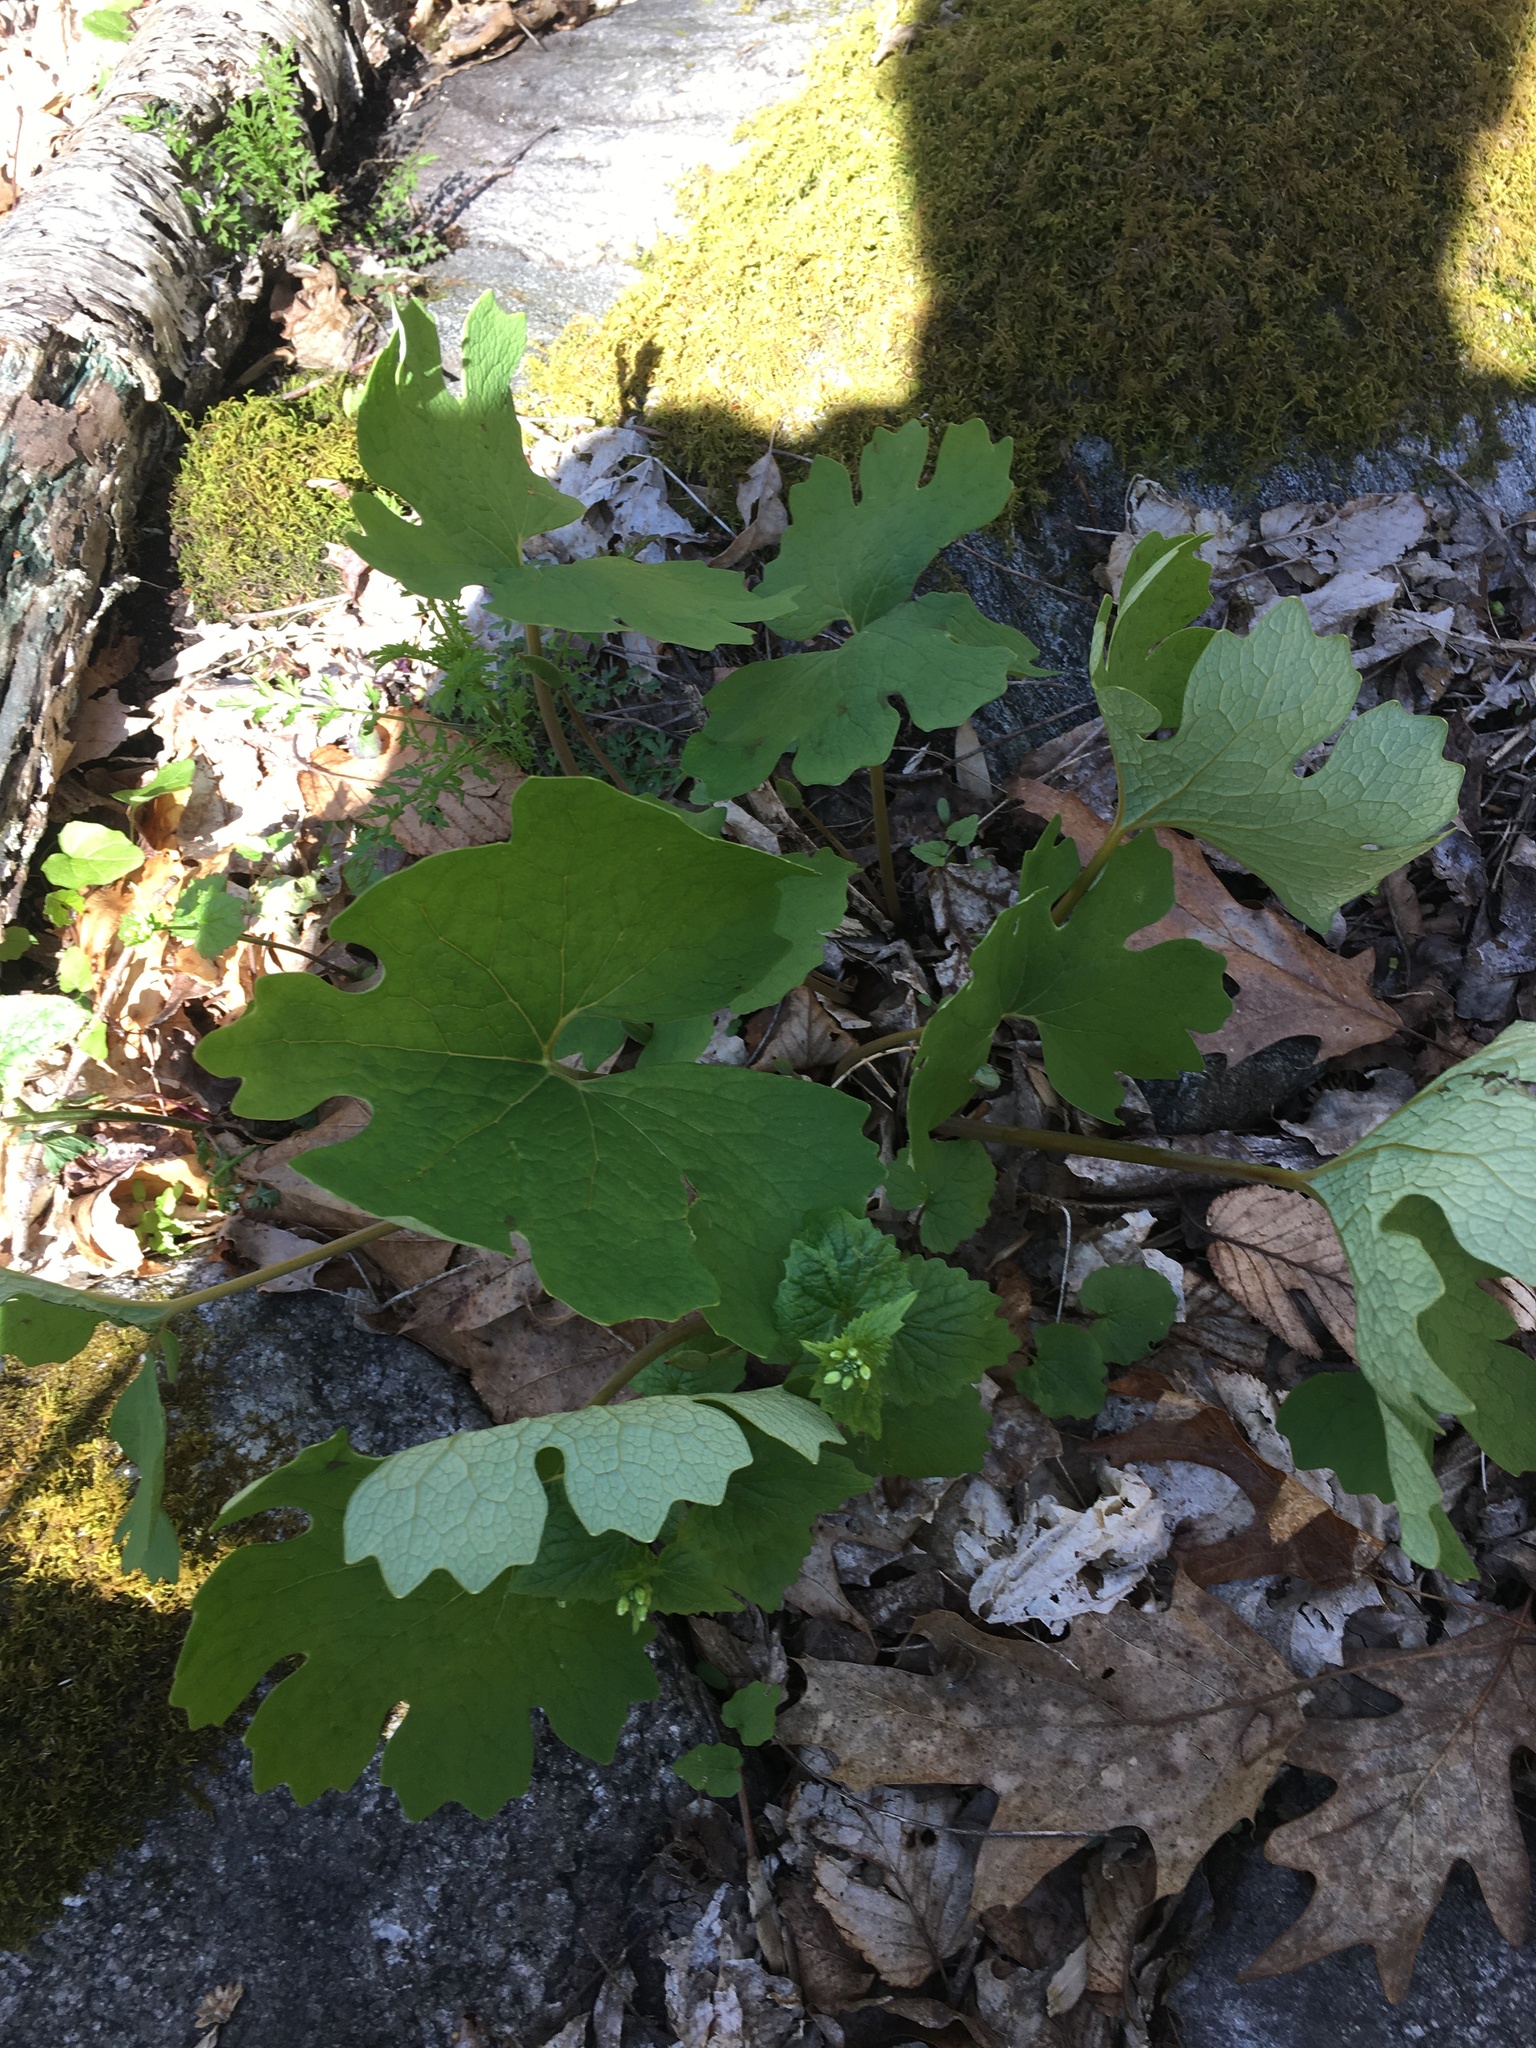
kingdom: Plantae
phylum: Tracheophyta
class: Magnoliopsida
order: Ranunculales
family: Papaveraceae
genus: Sanguinaria
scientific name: Sanguinaria canadensis
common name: Bloodroot
